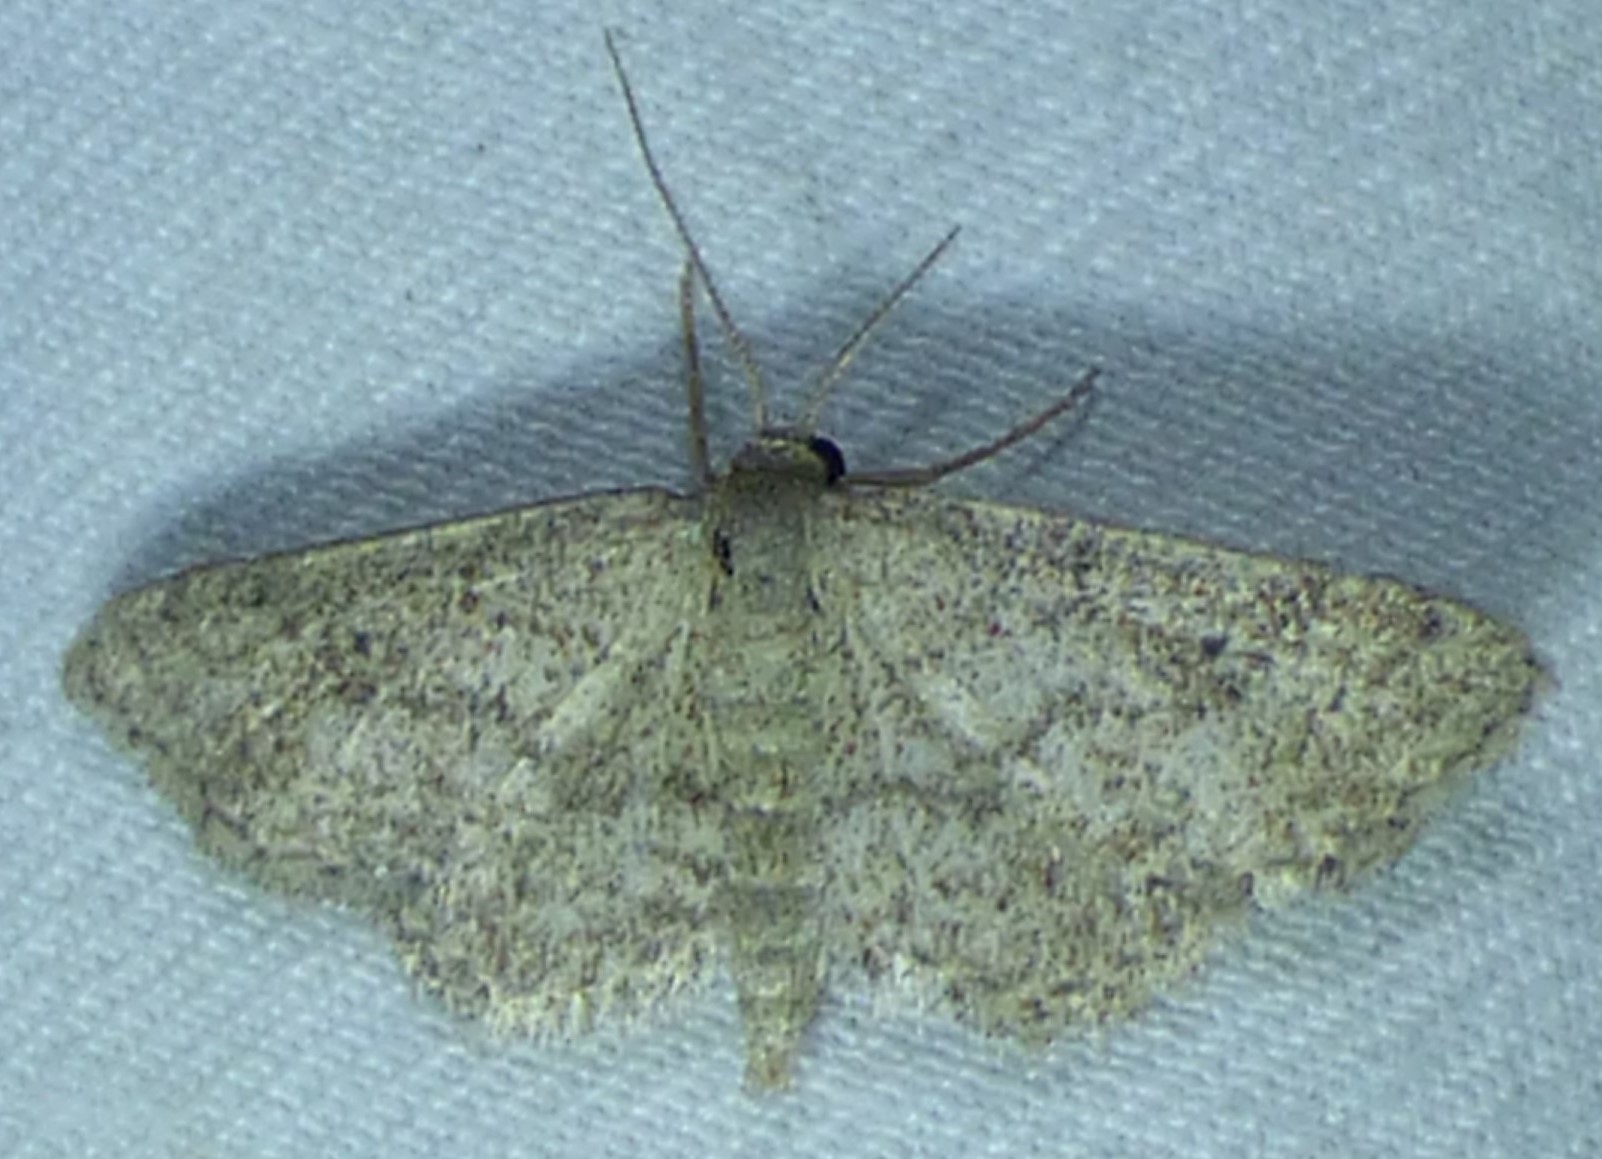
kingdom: Animalia
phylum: Arthropoda
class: Insecta
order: Lepidoptera
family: Geometridae
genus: Lobocleta
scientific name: Lobocleta ossularia
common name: Drab brown wave
